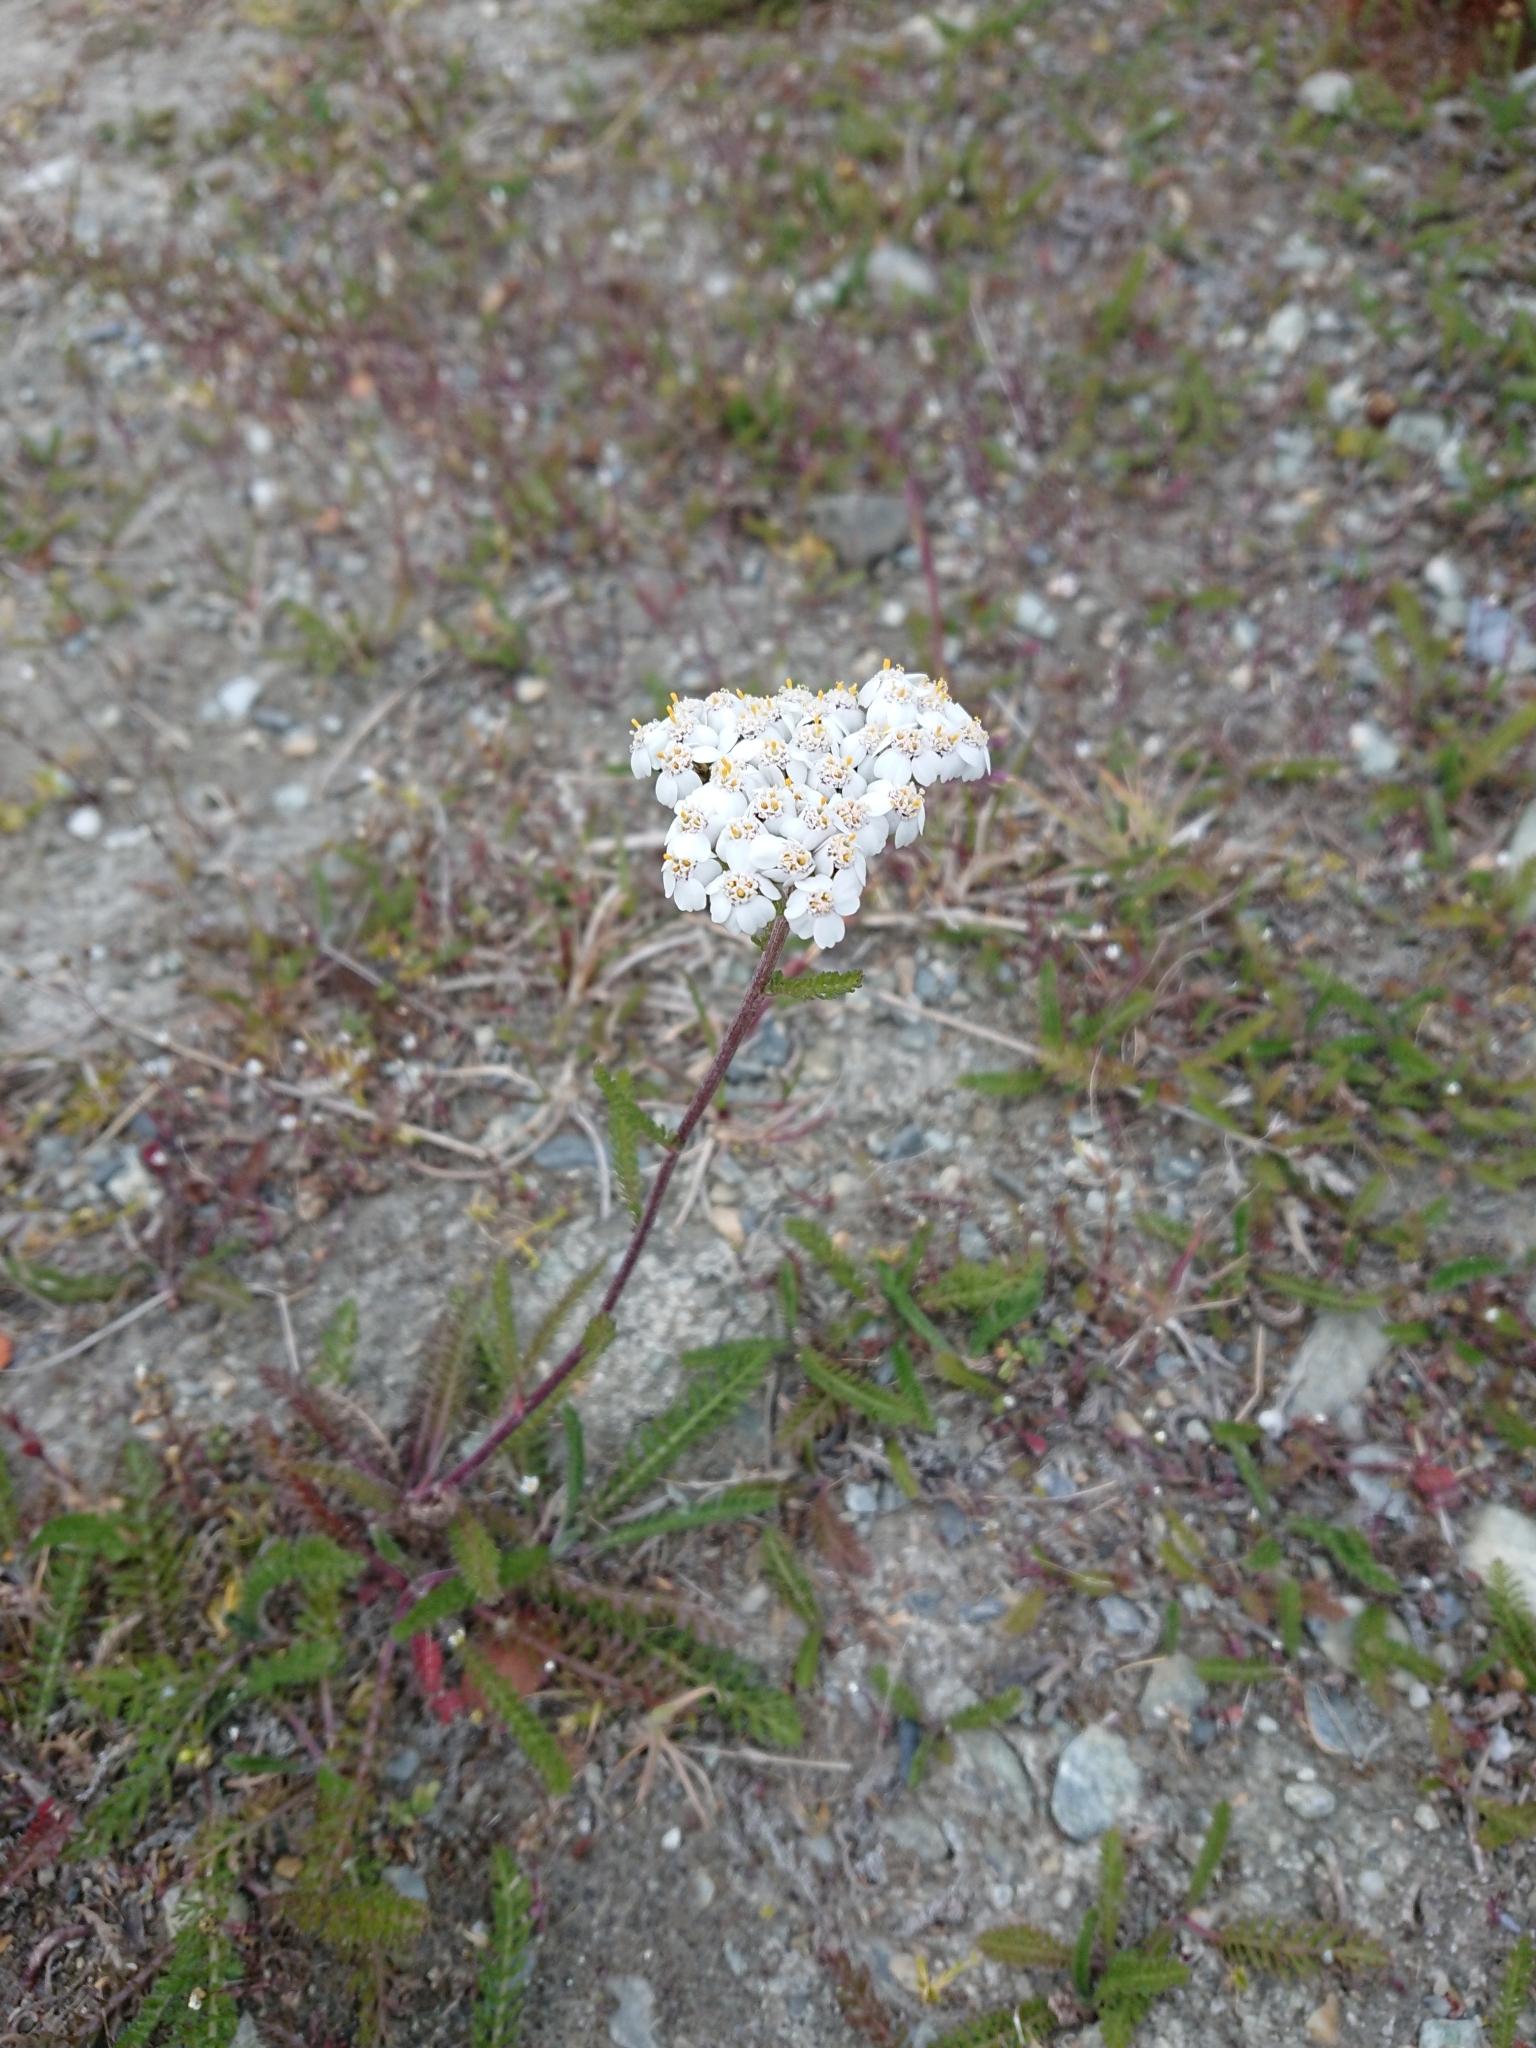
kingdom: Plantae
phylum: Tracheophyta
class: Magnoliopsida
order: Asterales
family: Asteraceae
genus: Achillea
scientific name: Achillea millefolium
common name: Yarrow
